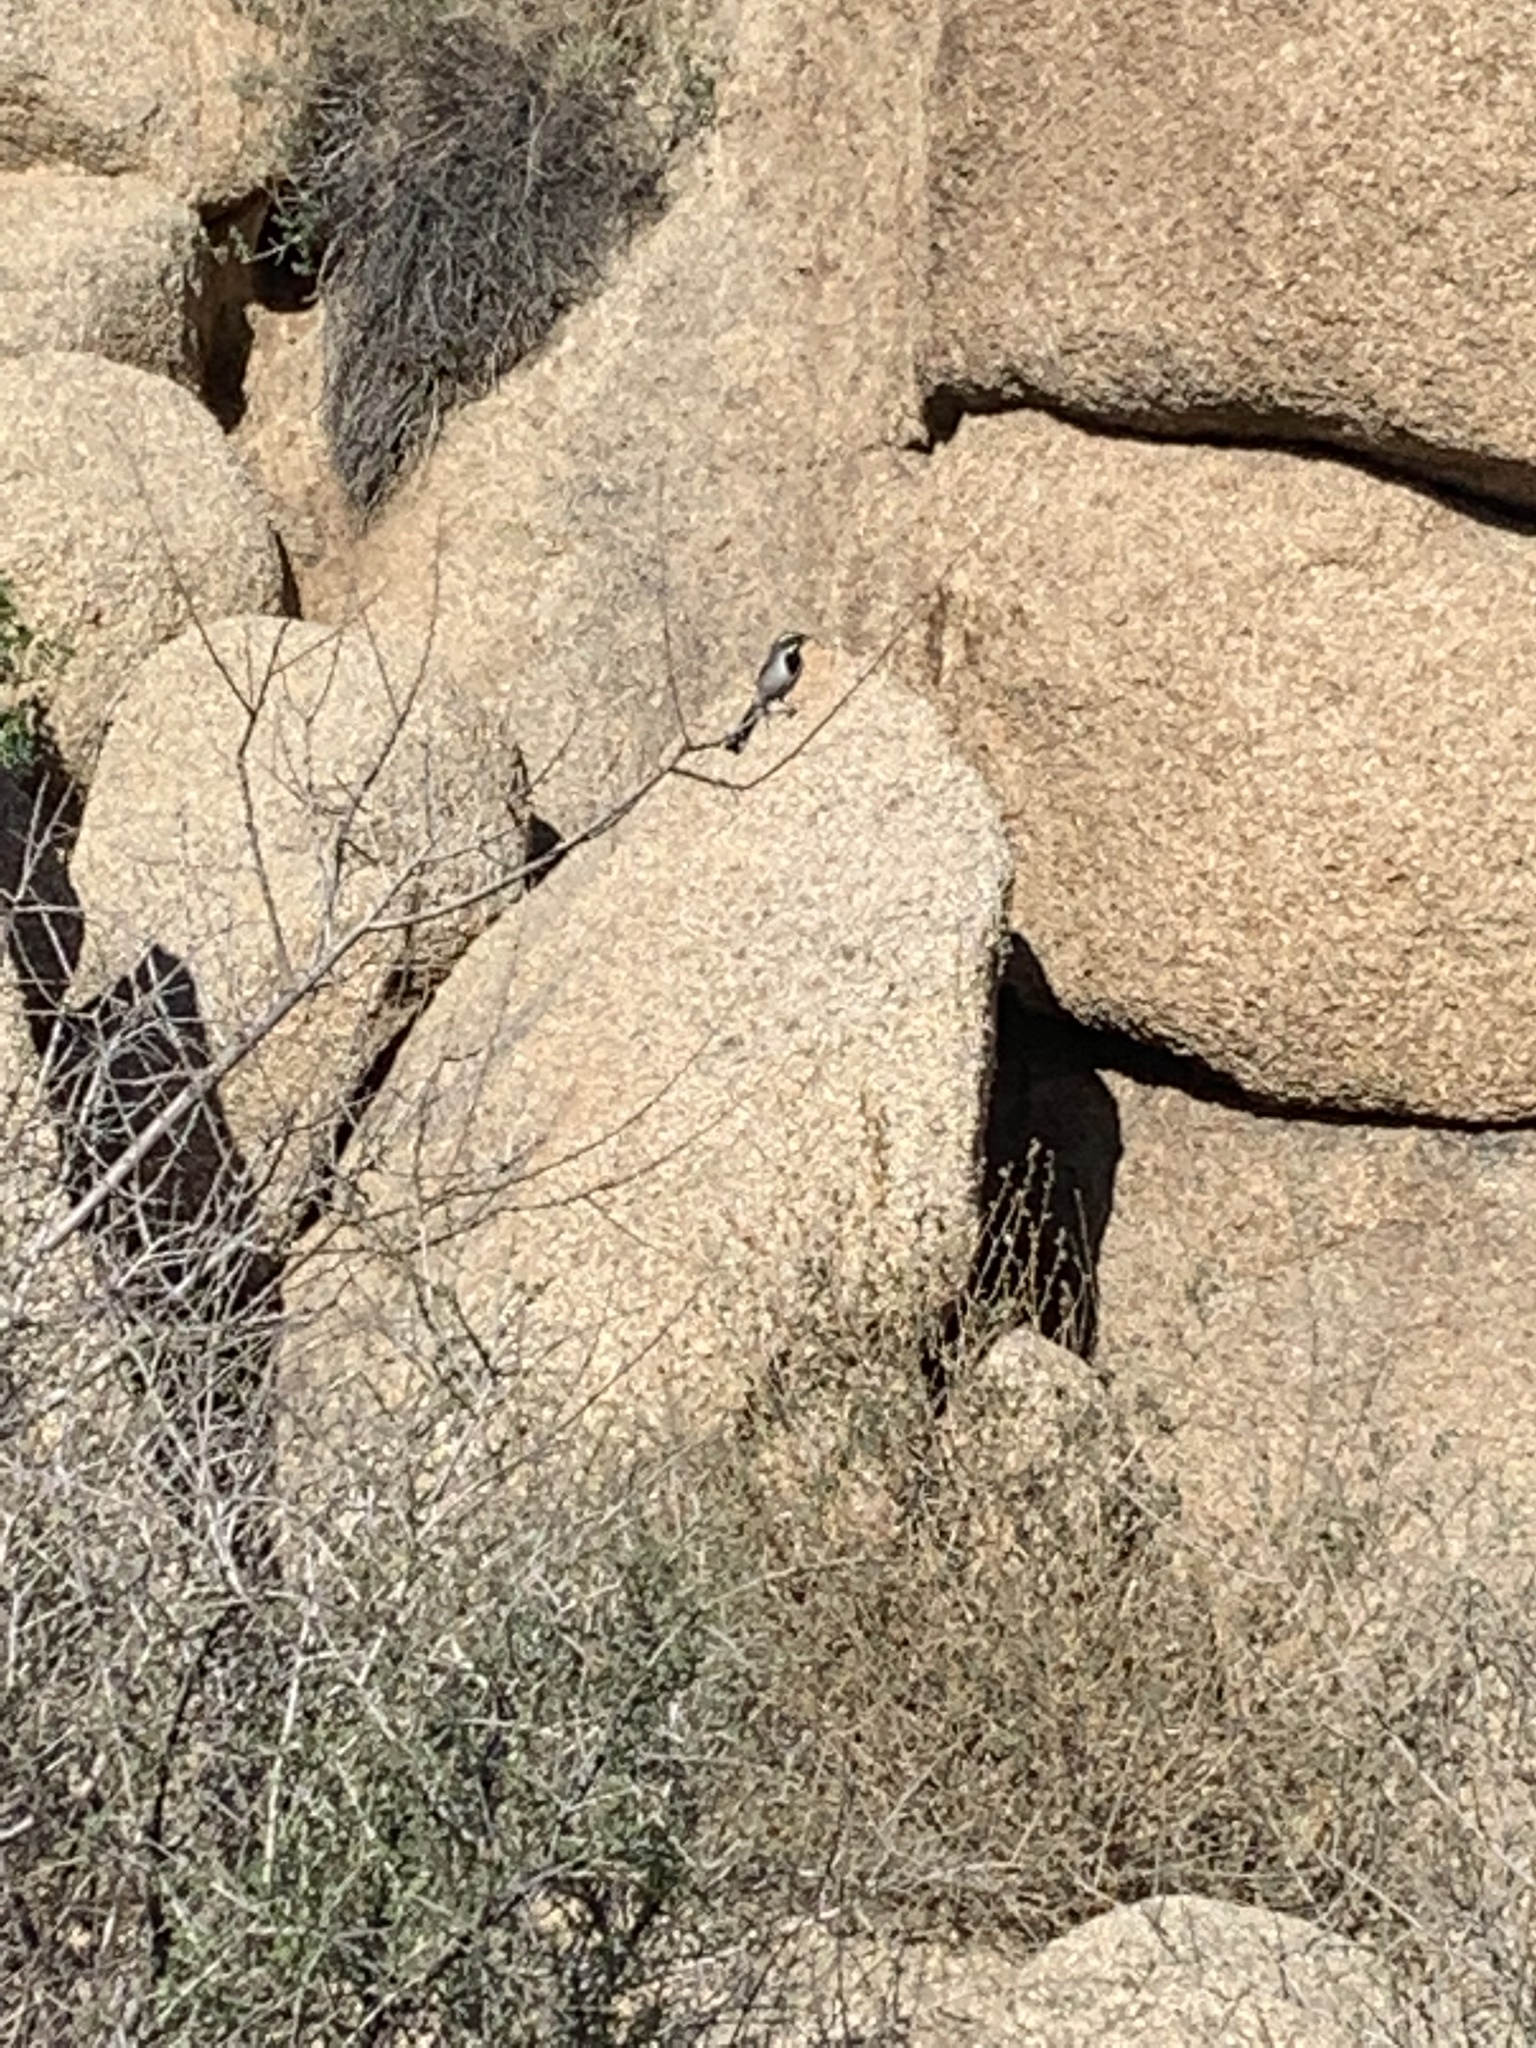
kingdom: Animalia
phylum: Chordata
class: Aves
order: Passeriformes
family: Passerellidae
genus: Amphispiza
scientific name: Amphispiza bilineata
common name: Black-throated sparrow
